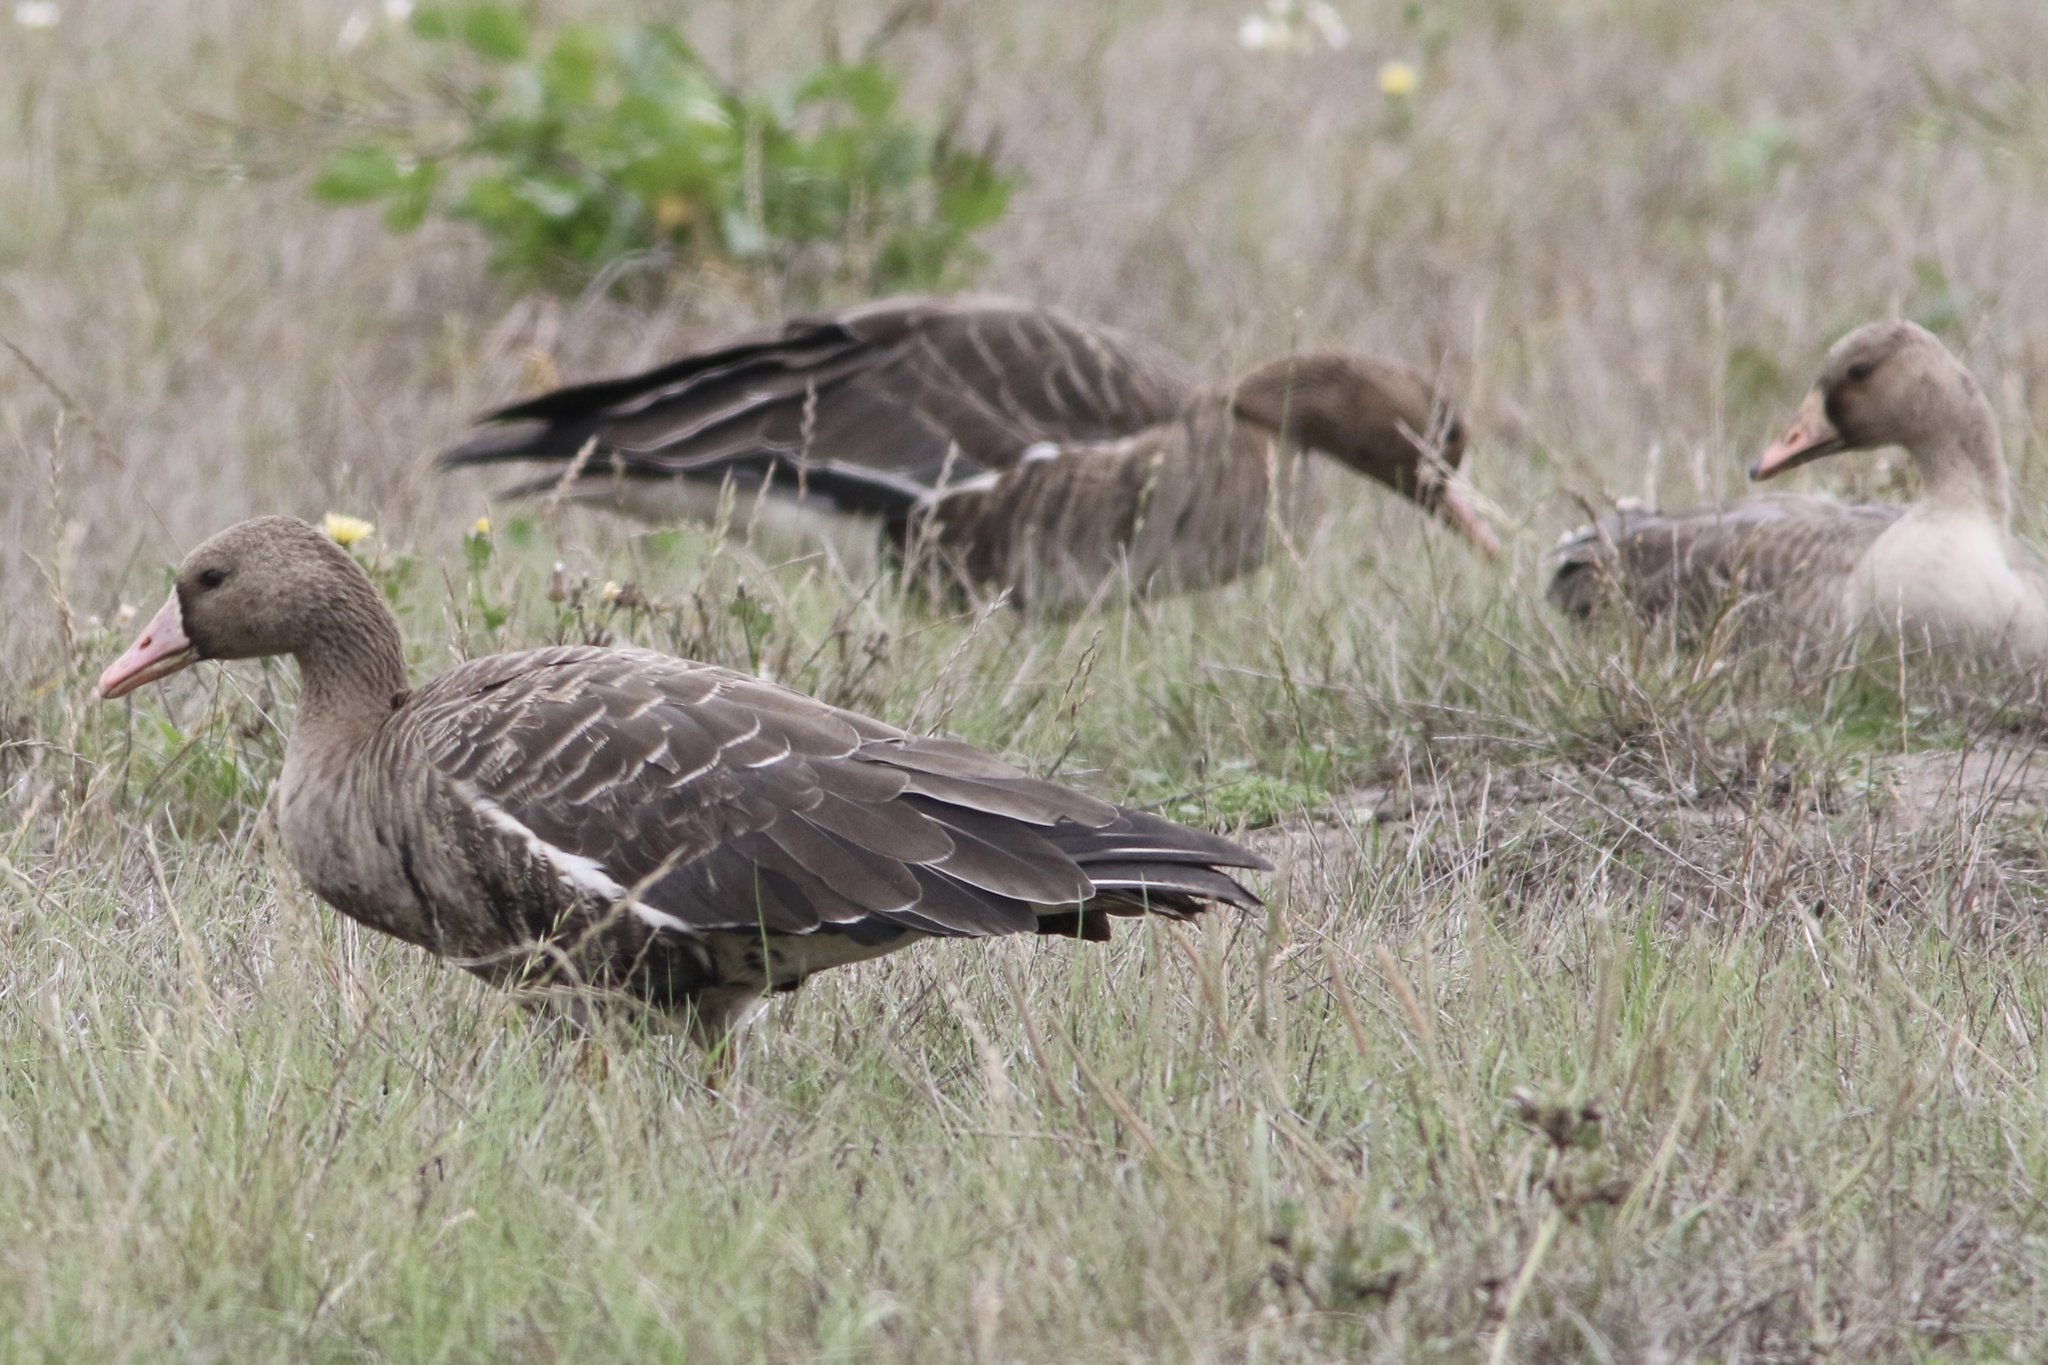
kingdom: Animalia
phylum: Chordata
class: Aves
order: Anseriformes
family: Anatidae
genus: Anser
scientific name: Anser albifrons
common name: Greater white-fronted goose
